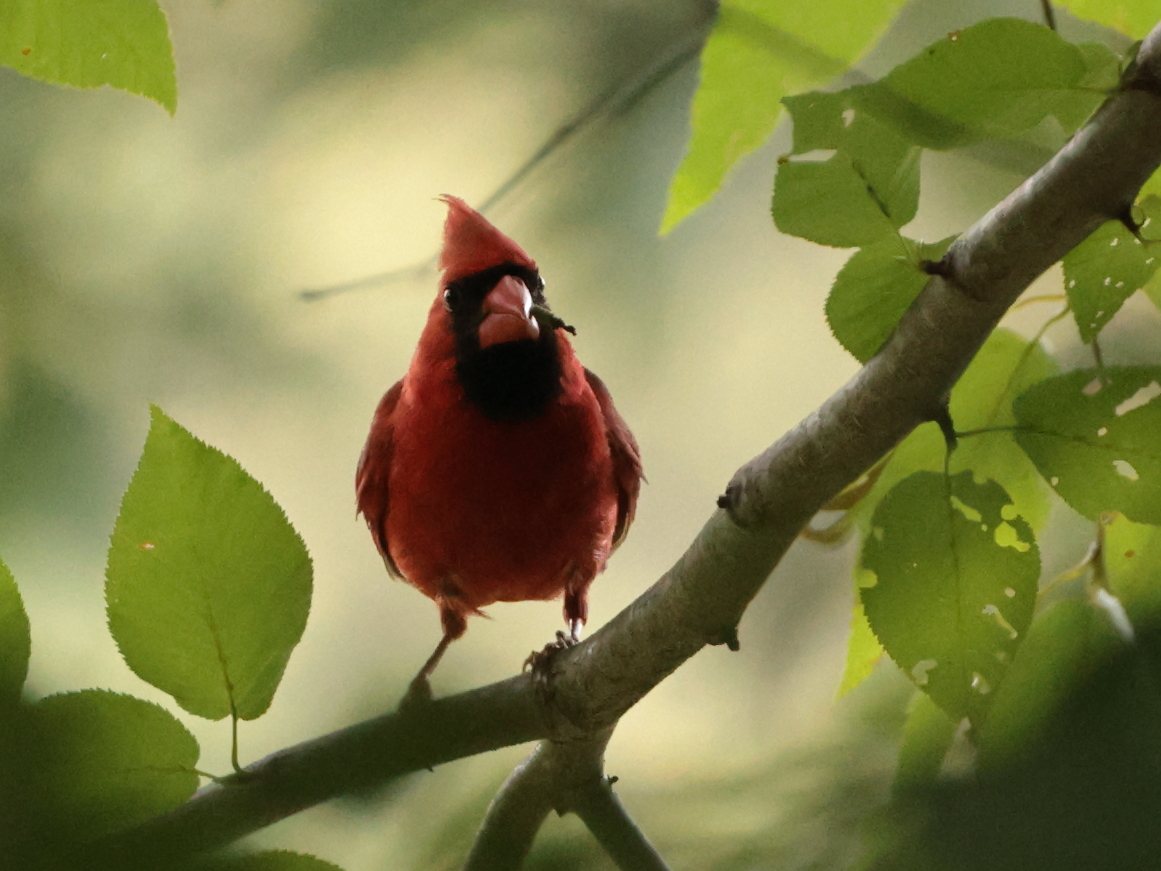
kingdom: Animalia
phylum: Chordata
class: Aves
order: Passeriformes
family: Cardinalidae
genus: Cardinalis
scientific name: Cardinalis cardinalis
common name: Northern cardinal
